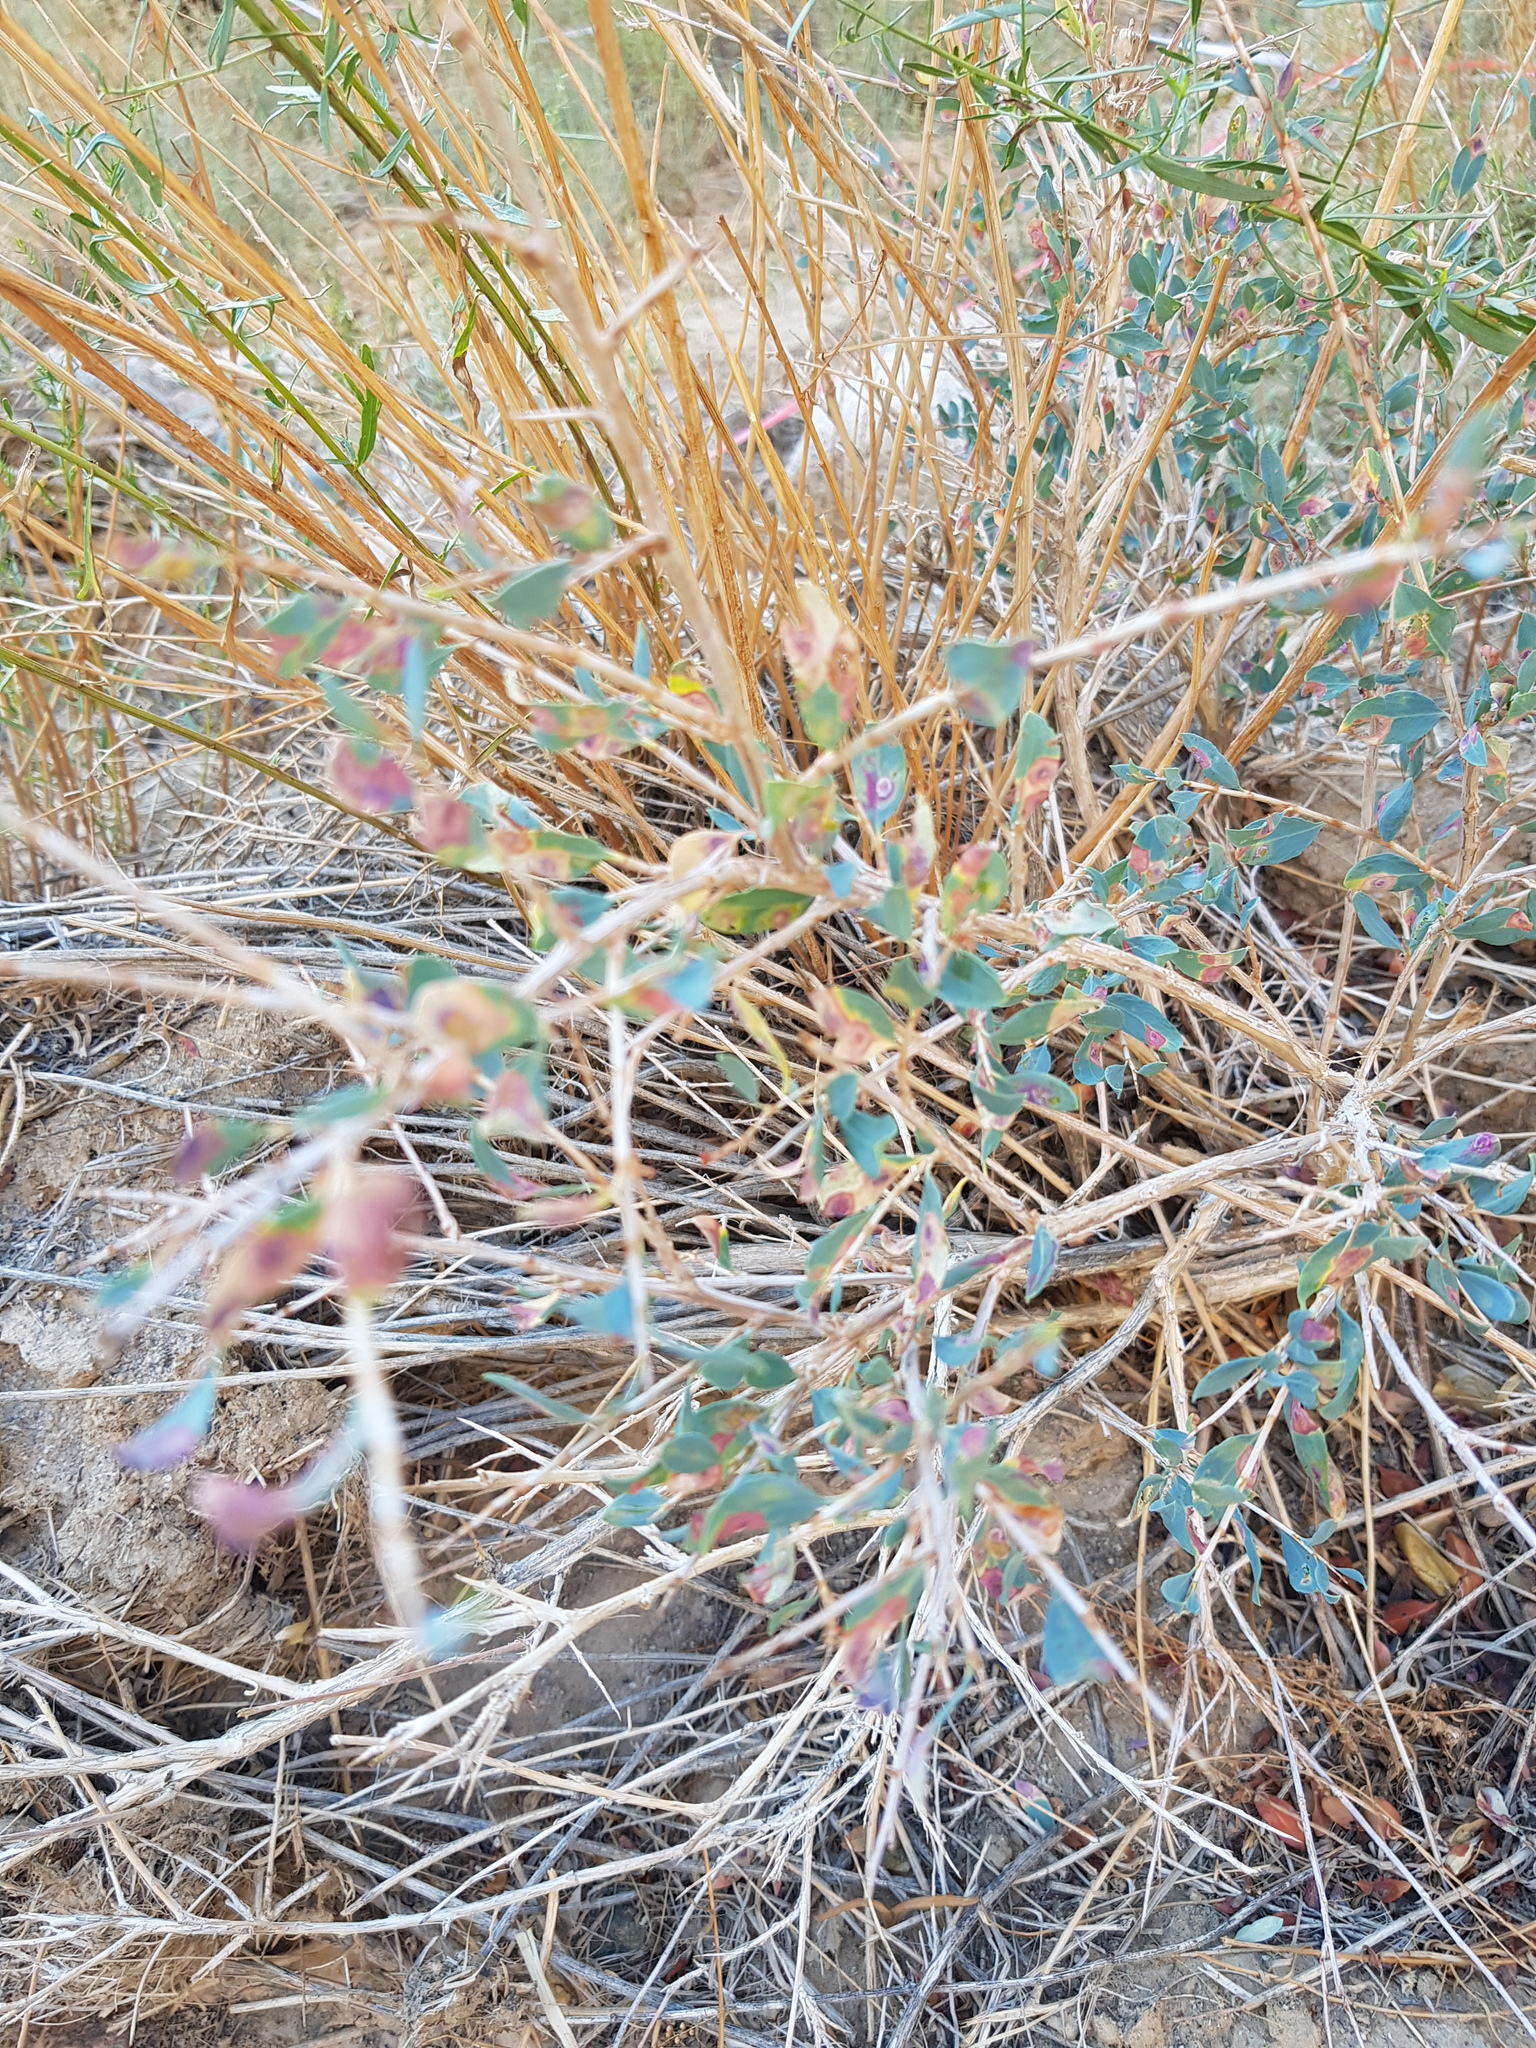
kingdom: Plantae
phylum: Tracheophyta
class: Magnoliopsida
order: Caryophyllales
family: Polygonaceae
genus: Atraphaxis
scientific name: Atraphaxis frutescens
